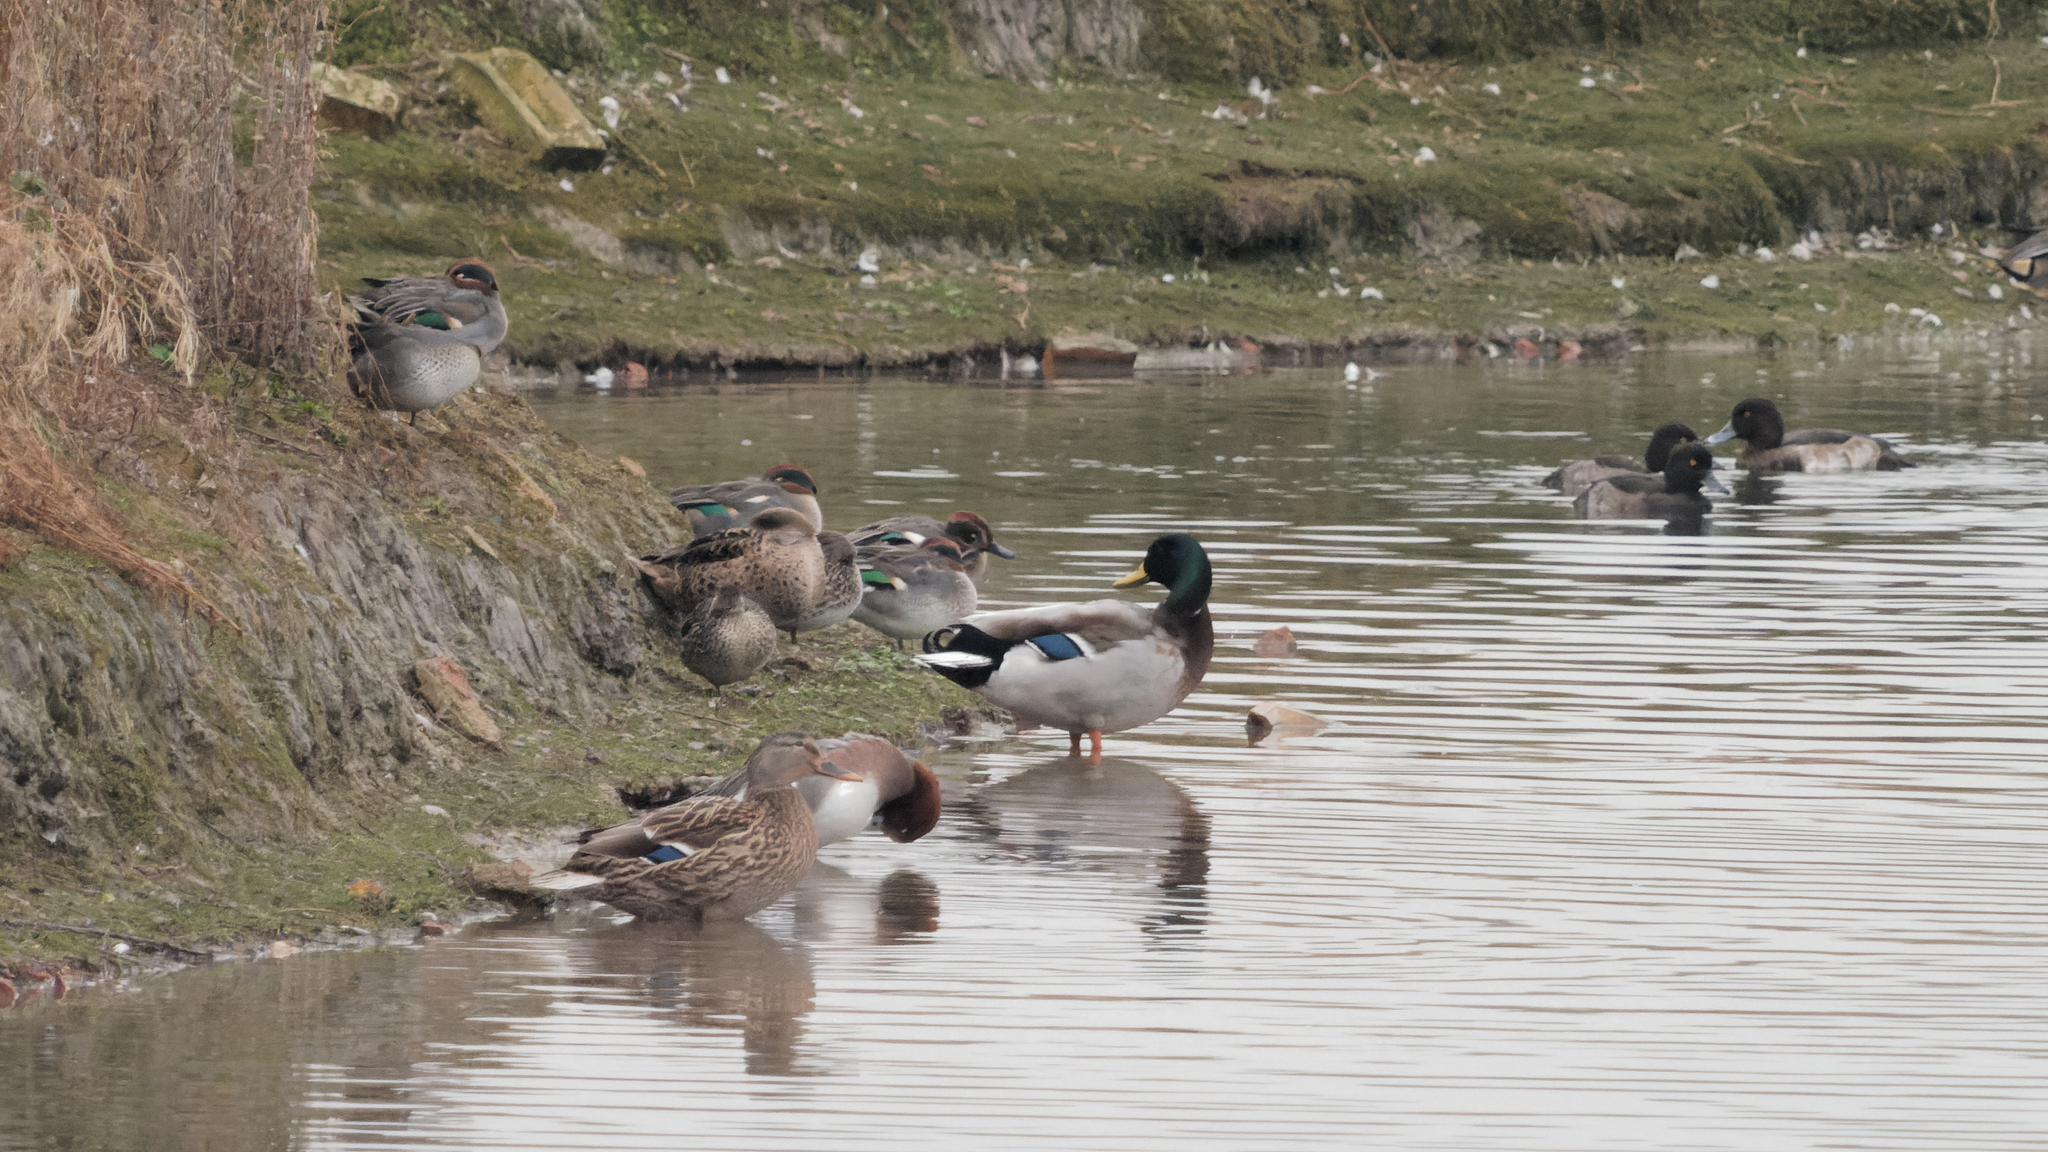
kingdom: Animalia
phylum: Chordata
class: Aves
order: Anseriformes
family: Anatidae
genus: Anas
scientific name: Anas platyrhynchos
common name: Mallard
